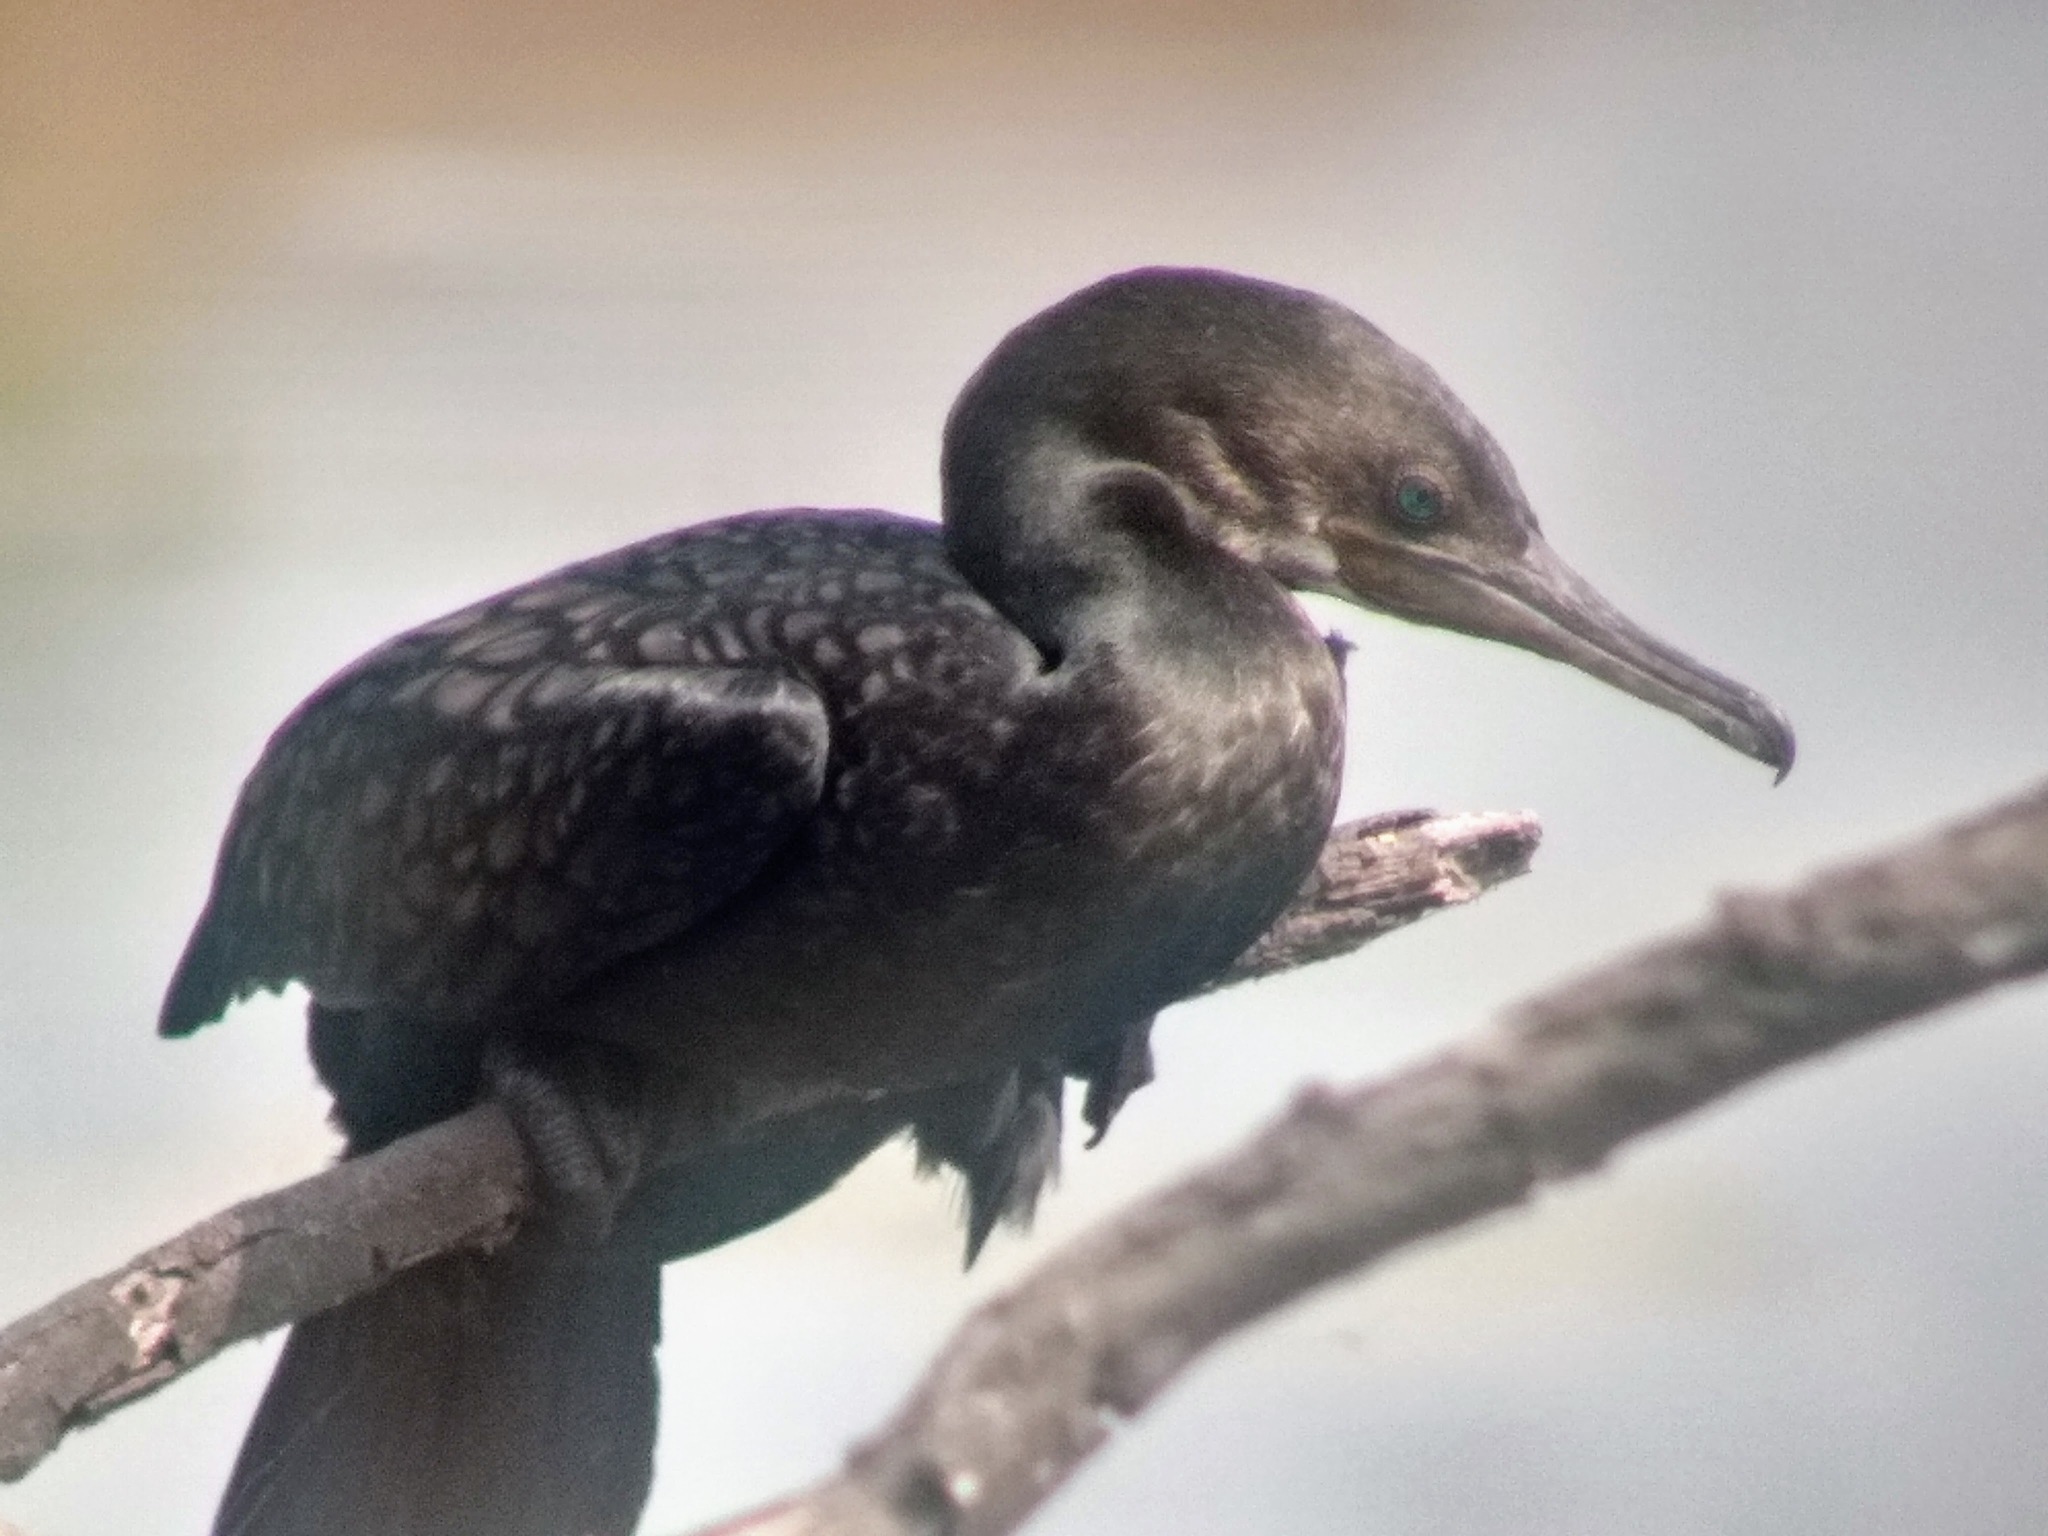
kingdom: Animalia
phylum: Chordata
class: Aves
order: Suliformes
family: Phalacrocoracidae
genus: Phalacrocorax
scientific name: Phalacrocorax fuscicollis
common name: Indian cormorant
